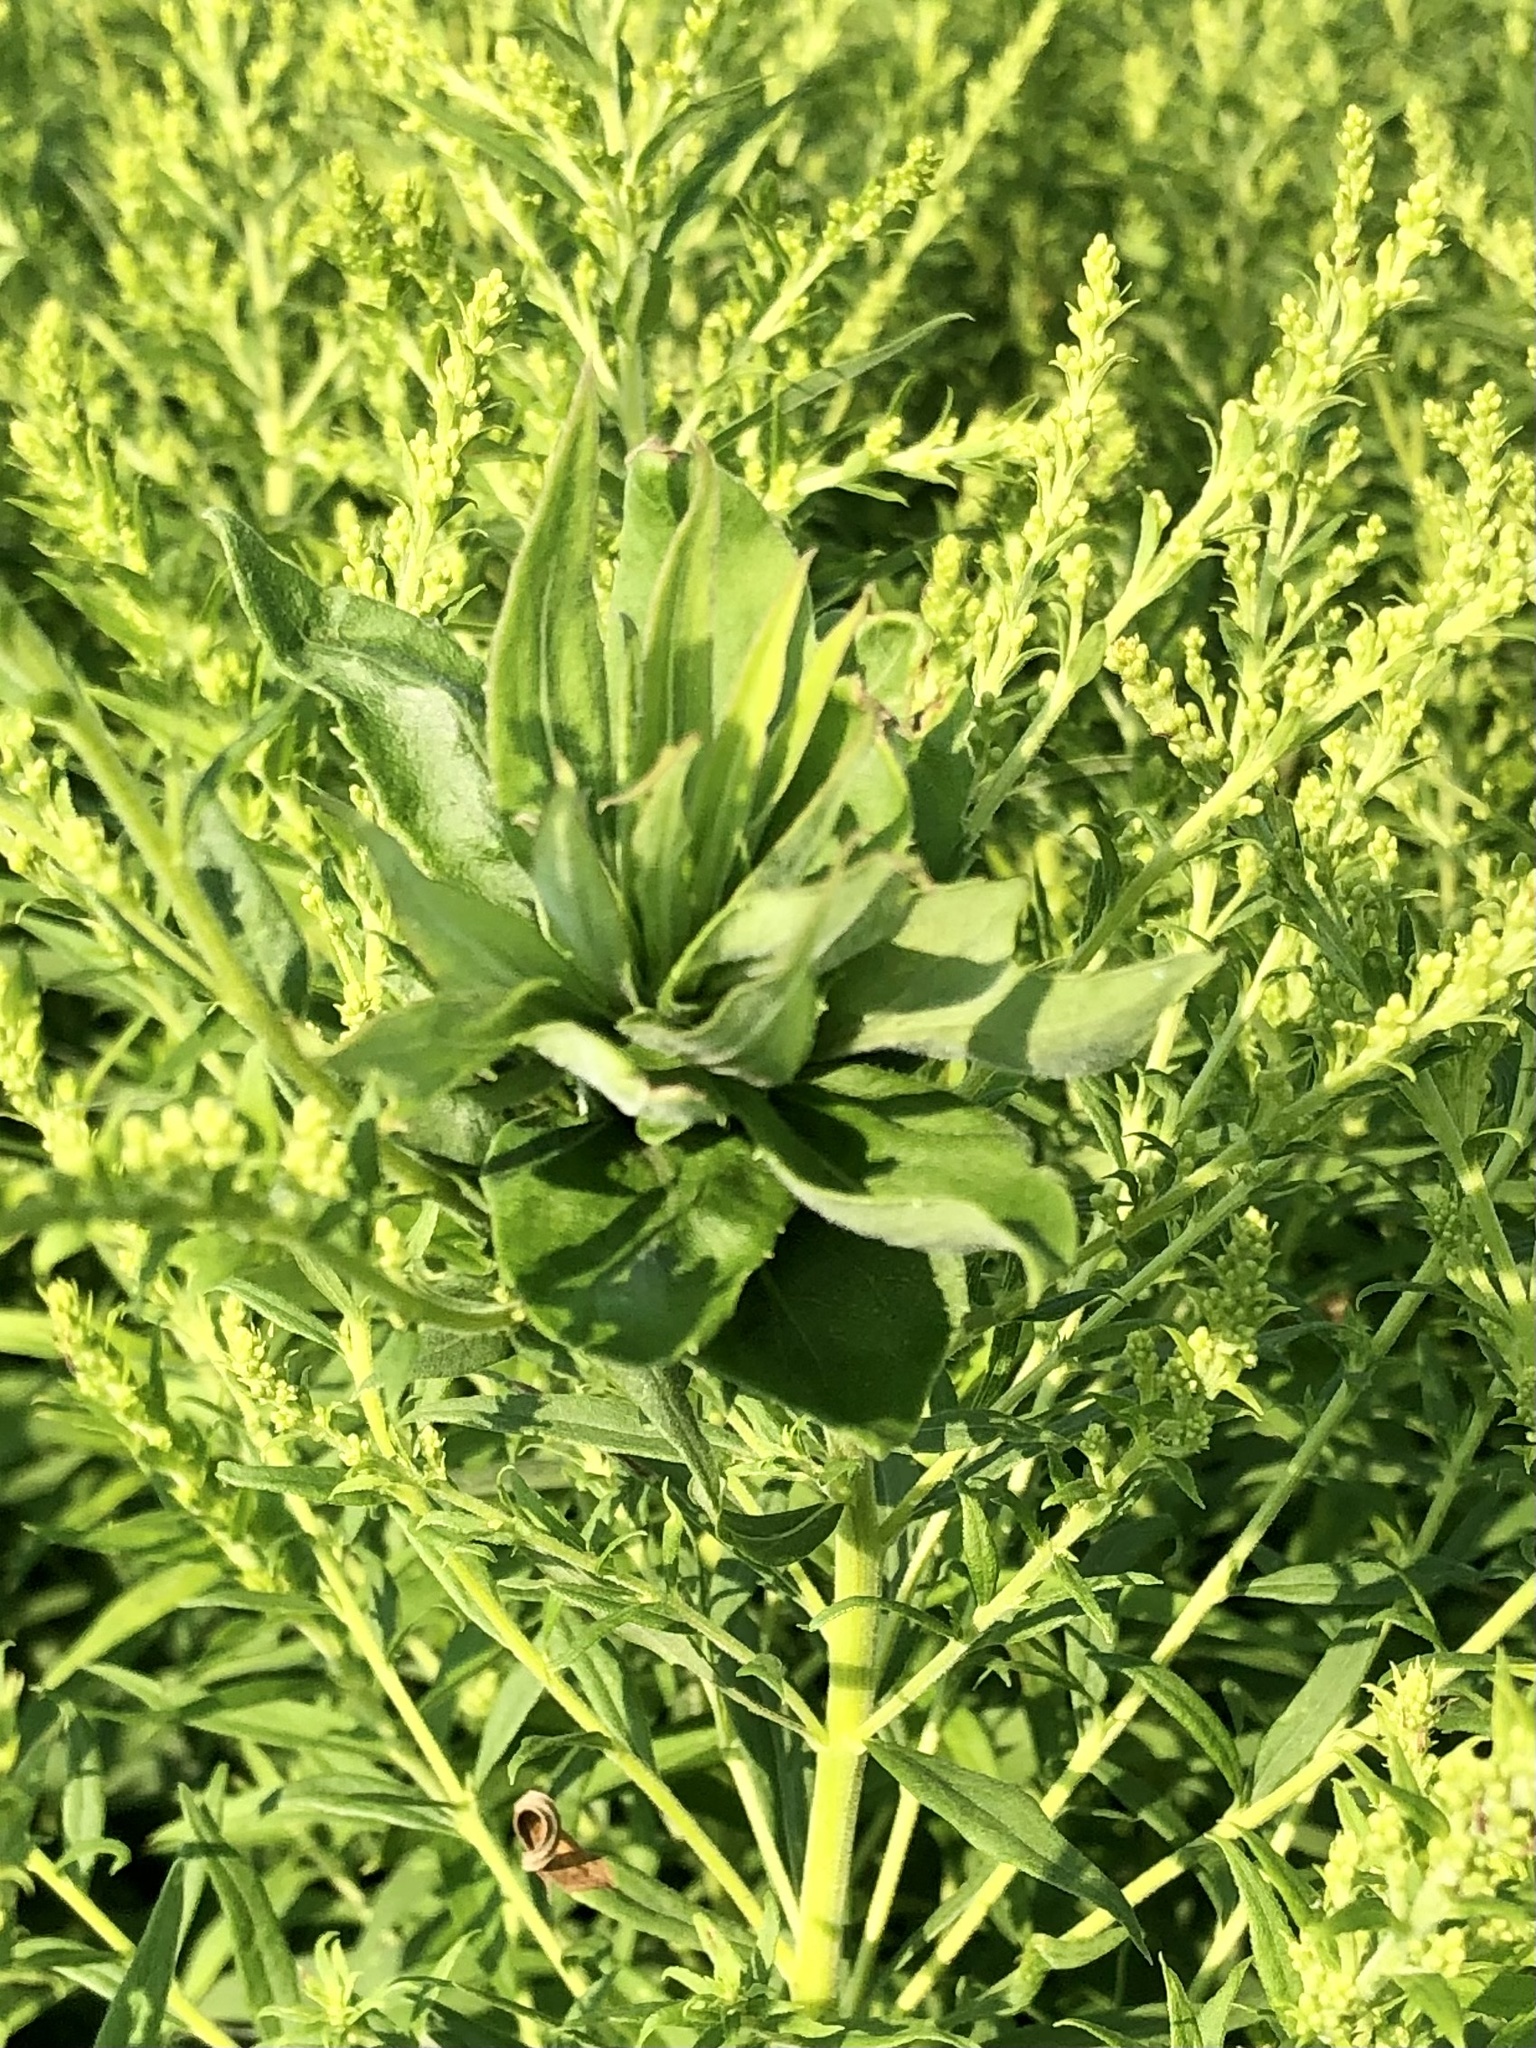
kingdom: Animalia
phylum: Arthropoda
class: Insecta
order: Diptera
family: Cecidomyiidae
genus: Rhopalomyia
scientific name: Rhopalomyia solidaginis
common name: Goldenrod bunch gall midge
